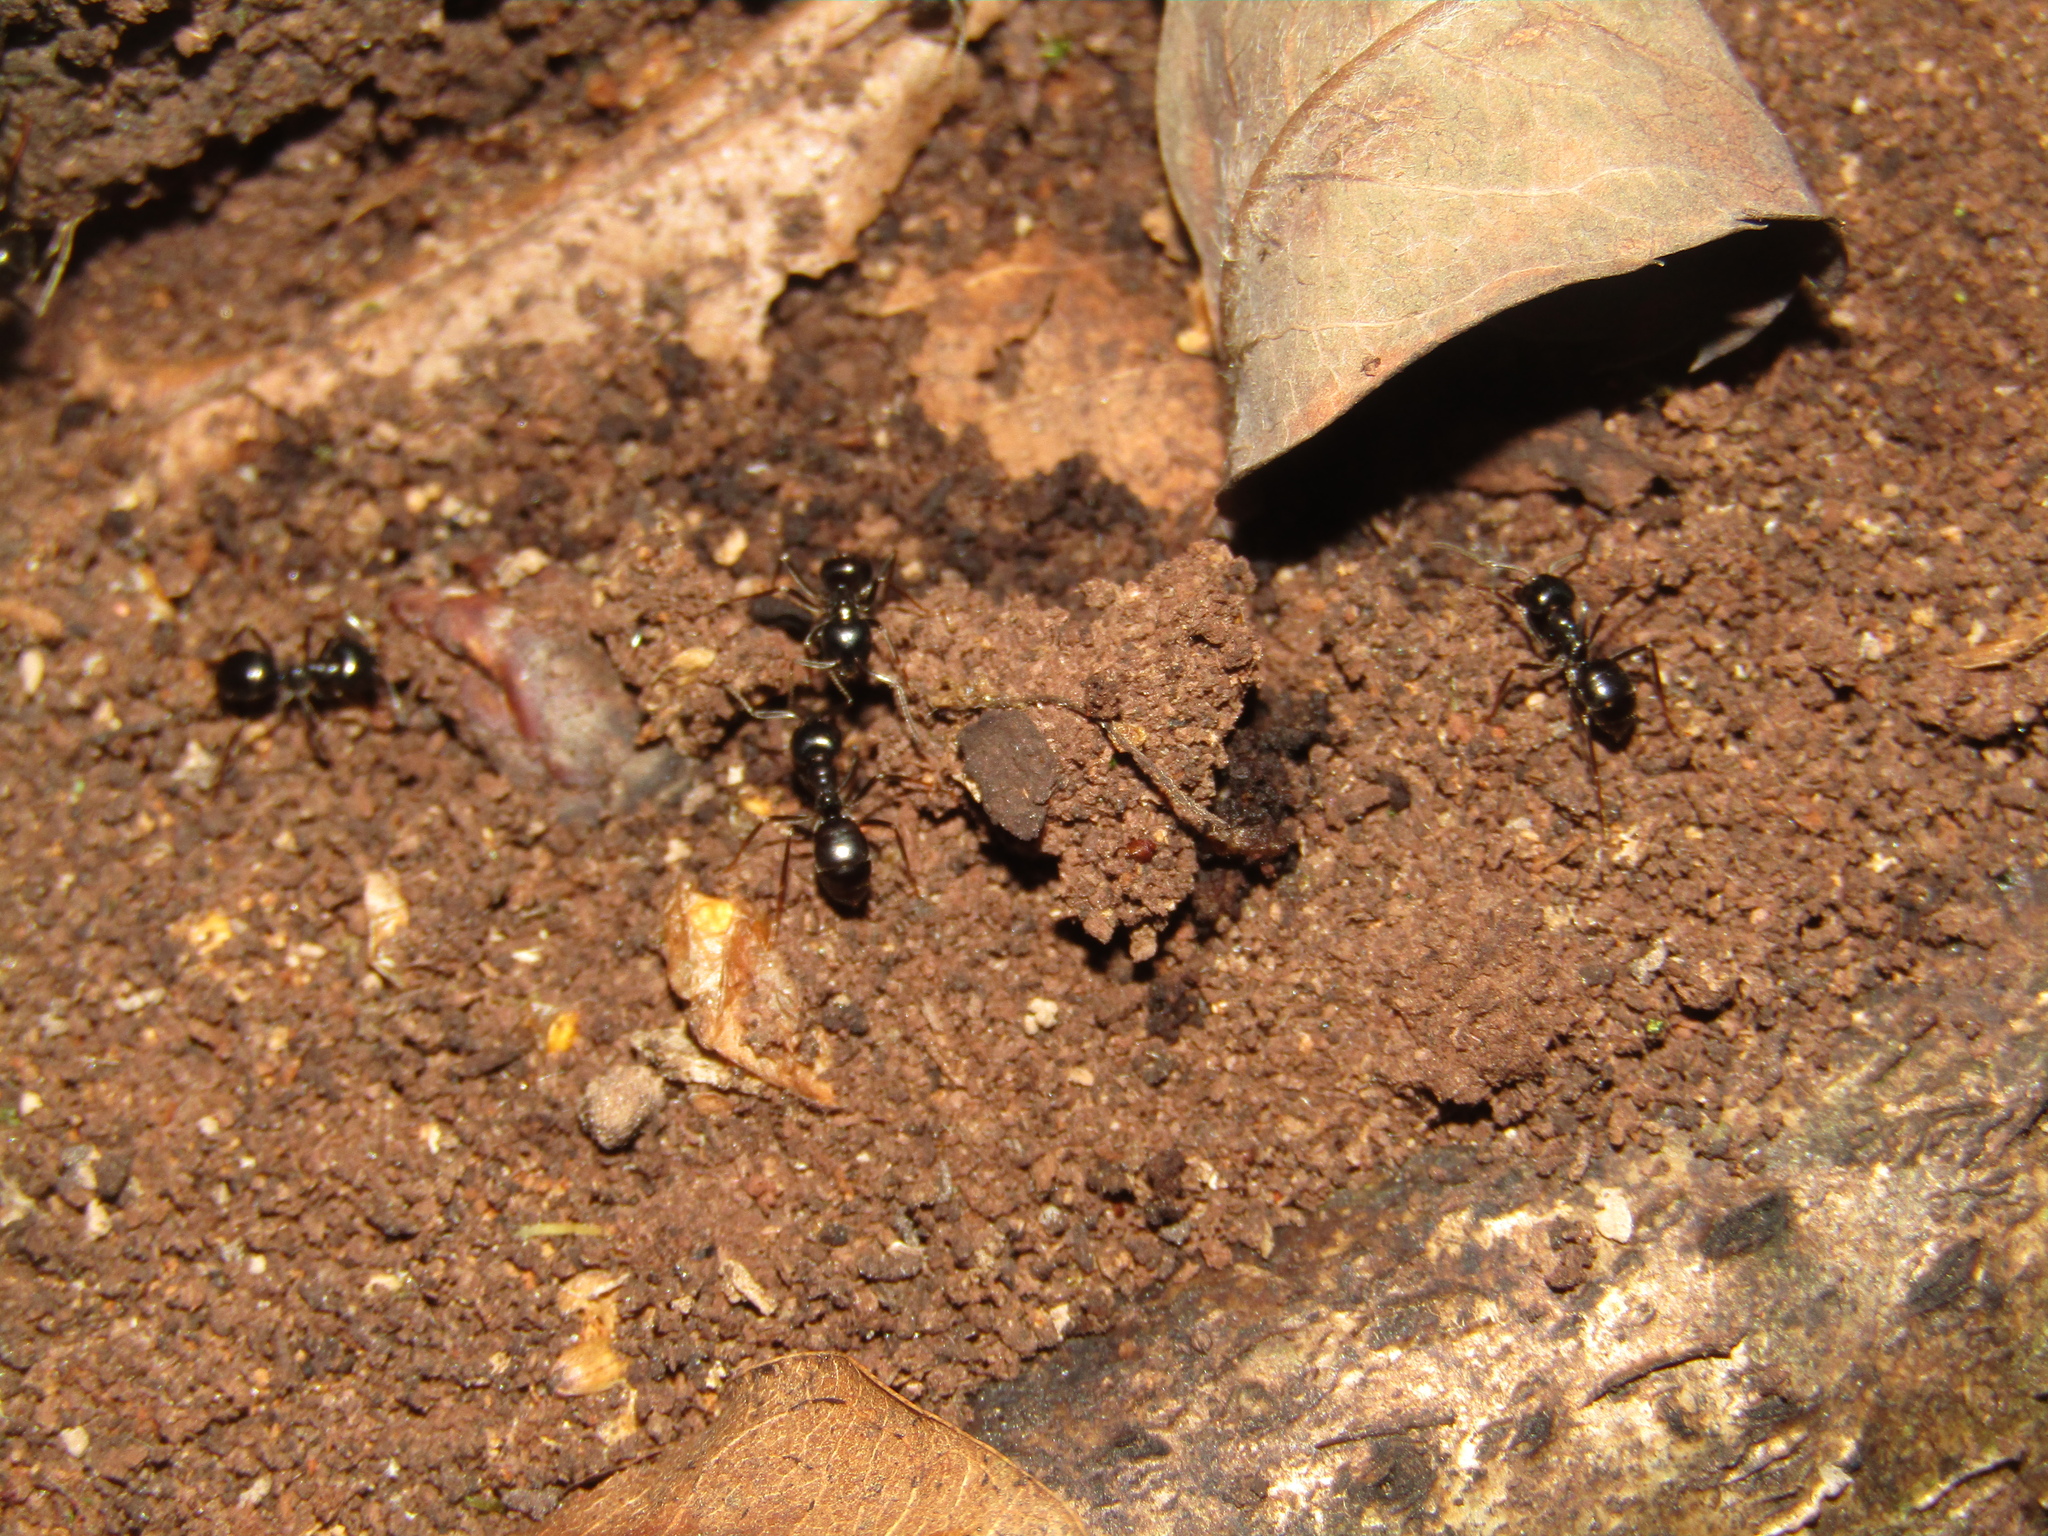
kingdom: Animalia
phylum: Arthropoda
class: Insecta
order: Hymenoptera
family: Formicidae
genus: Lasius
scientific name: Lasius fuliginosus
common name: Jet ant
